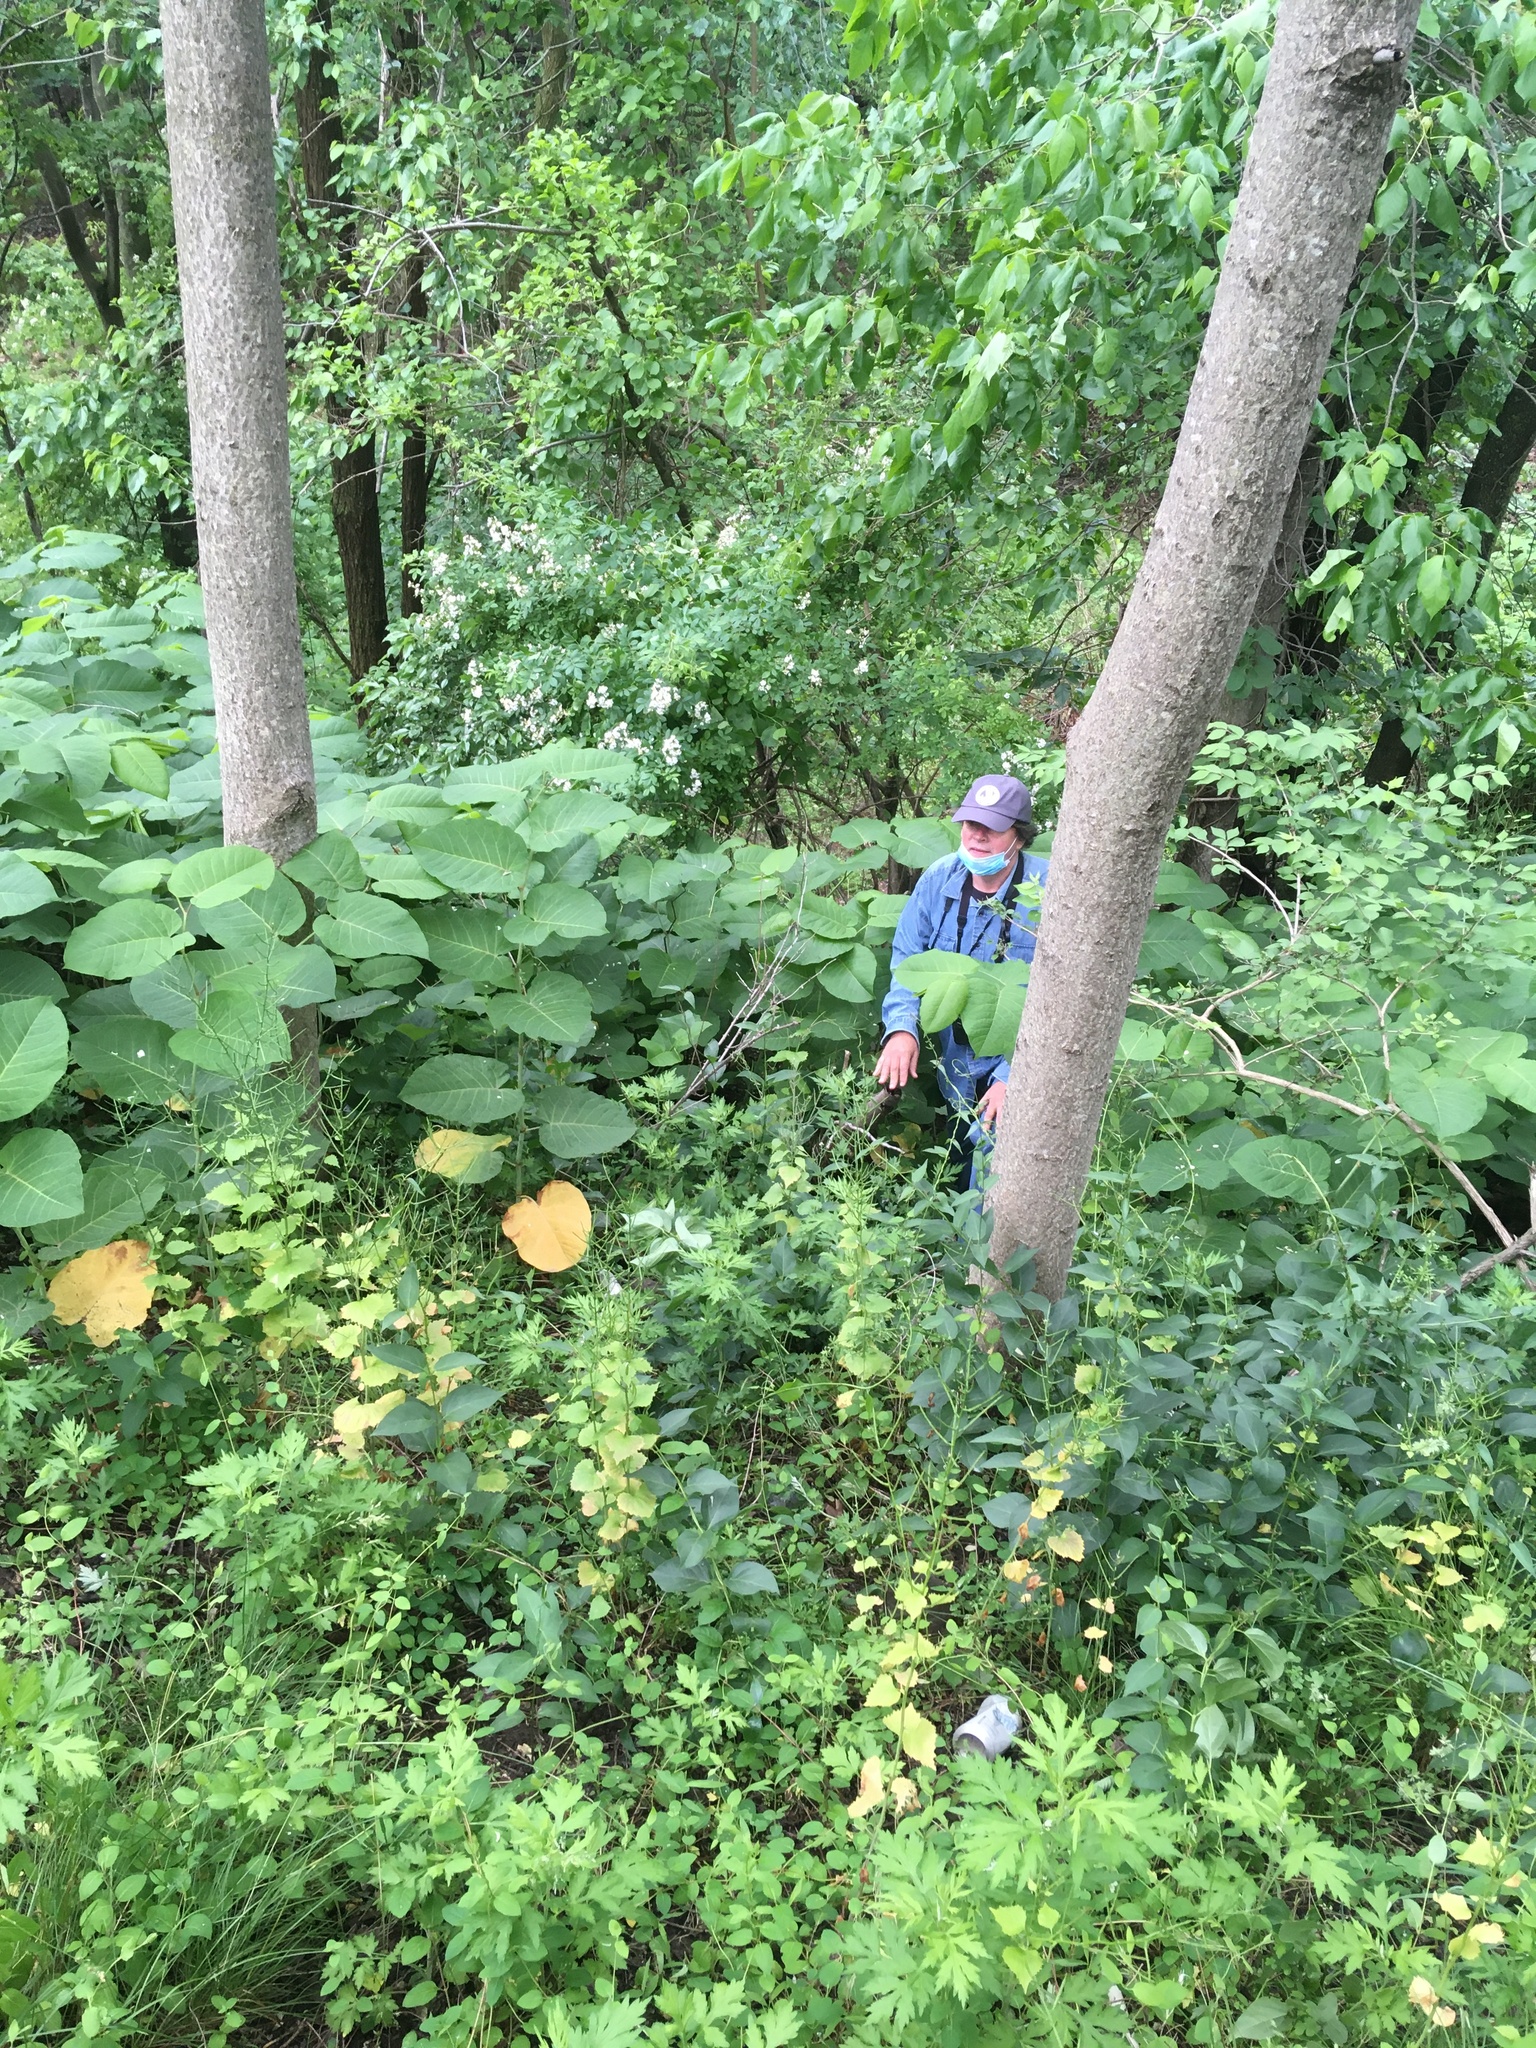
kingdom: Plantae
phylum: Tracheophyta
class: Magnoliopsida
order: Caryophyllales
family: Polygonaceae
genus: Reynoutria
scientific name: Reynoutria sachalinensis
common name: Giant knotweed
